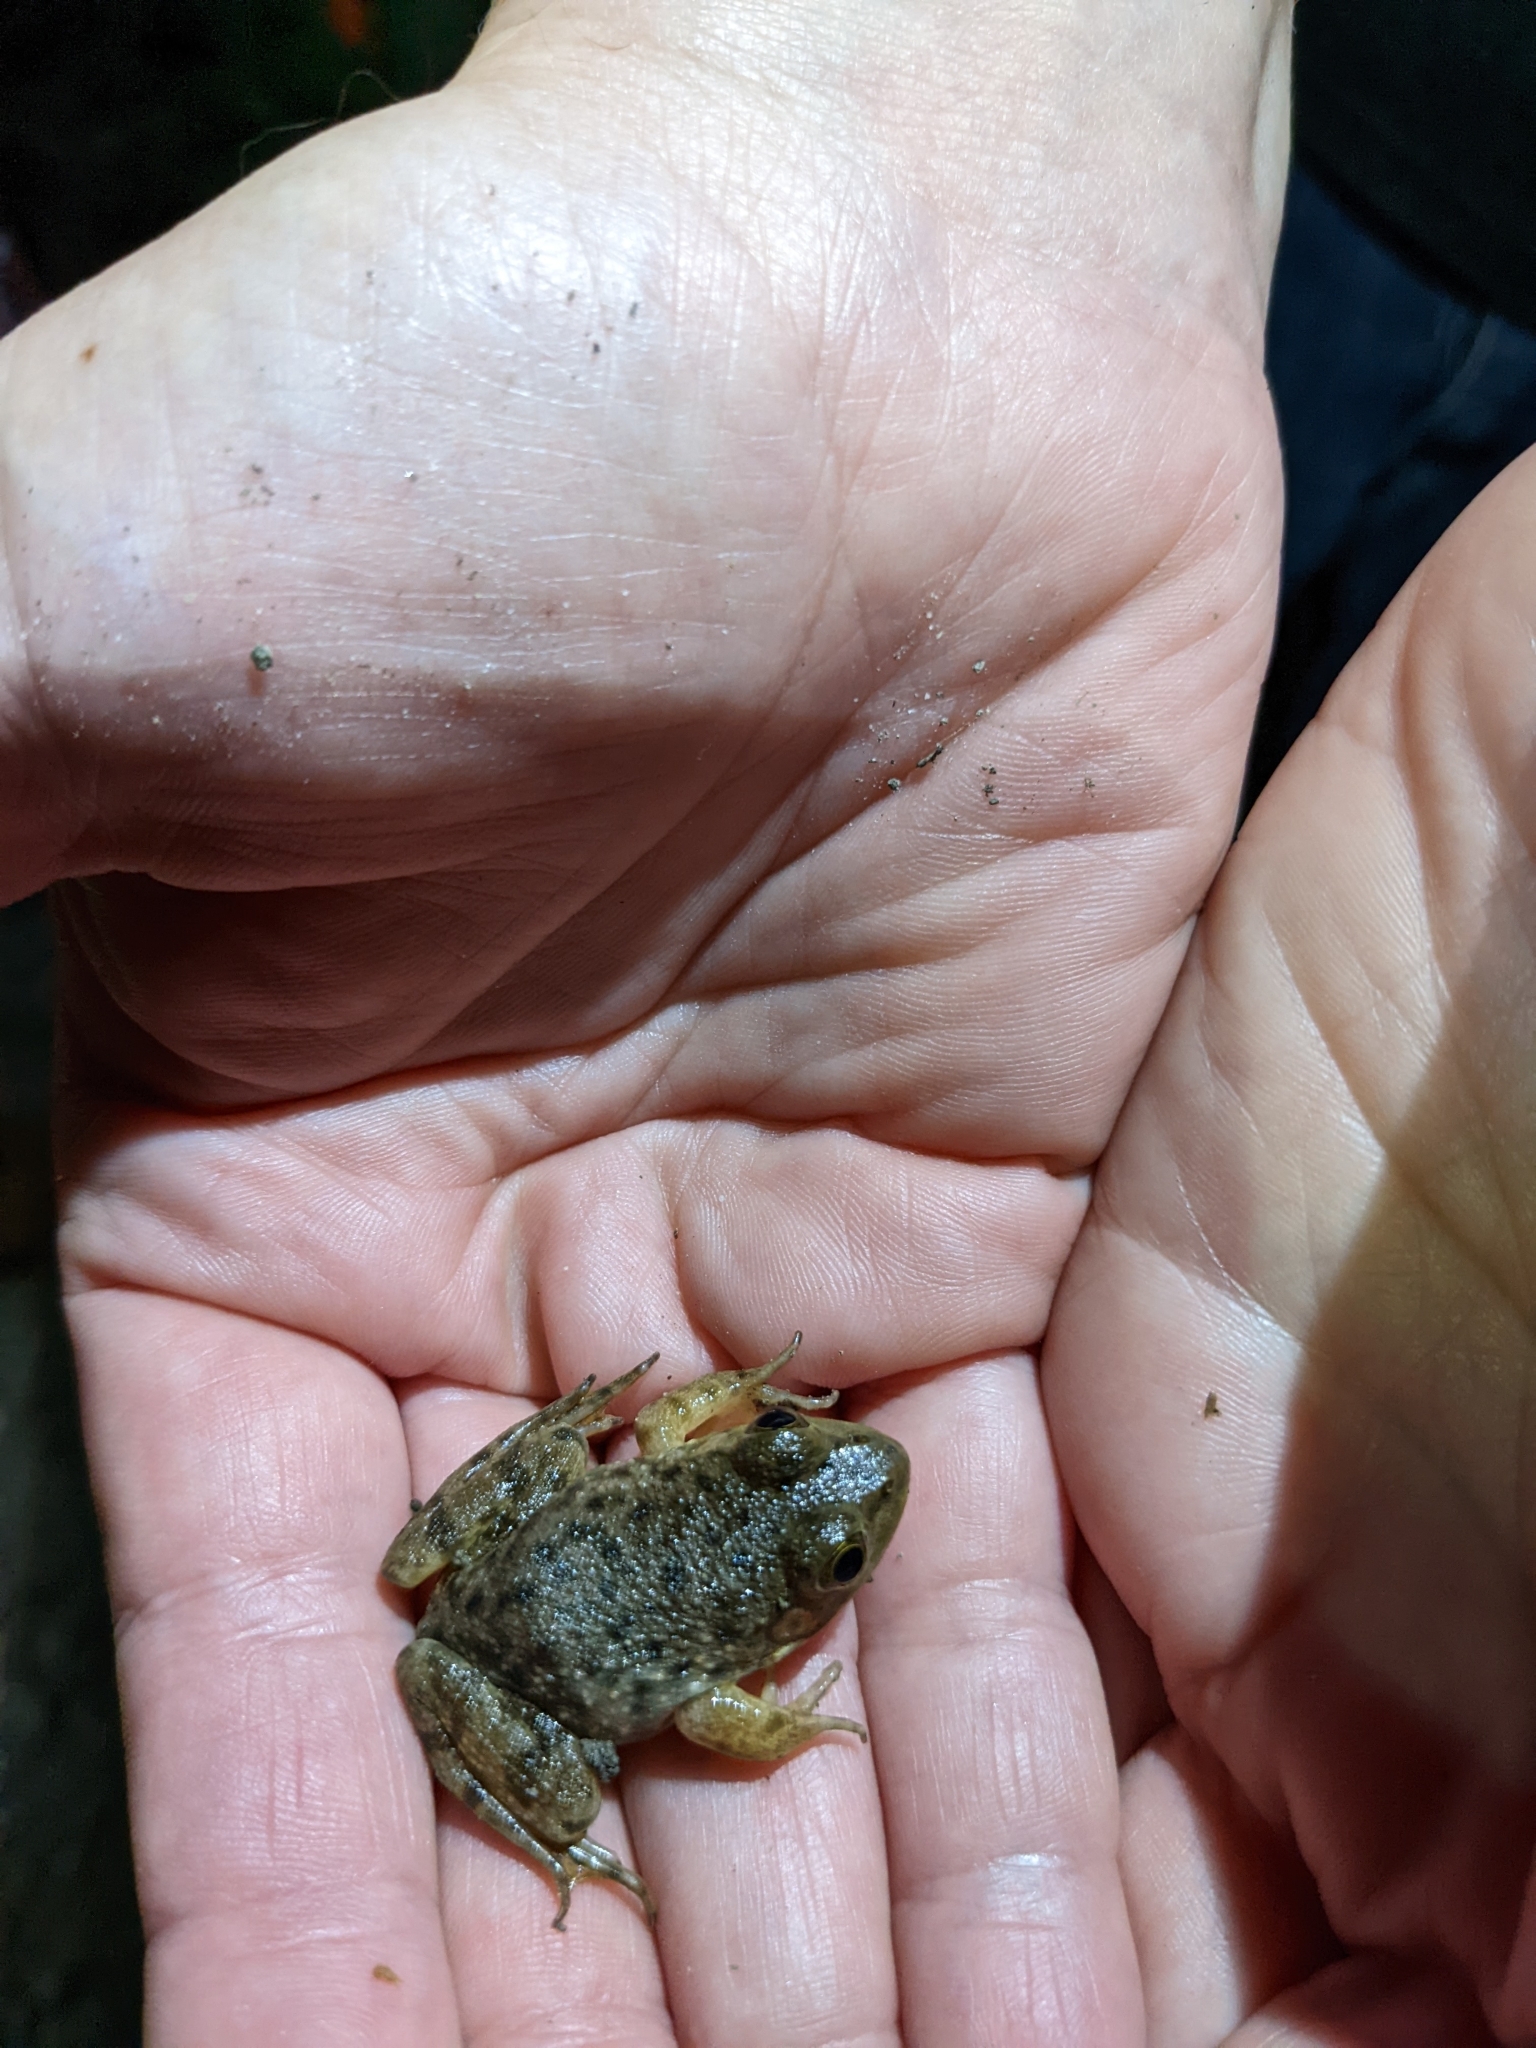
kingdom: Animalia
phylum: Chordata
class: Amphibia
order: Anura
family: Ranidae
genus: Lithobates
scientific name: Lithobates catesbeianus
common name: American bullfrog
